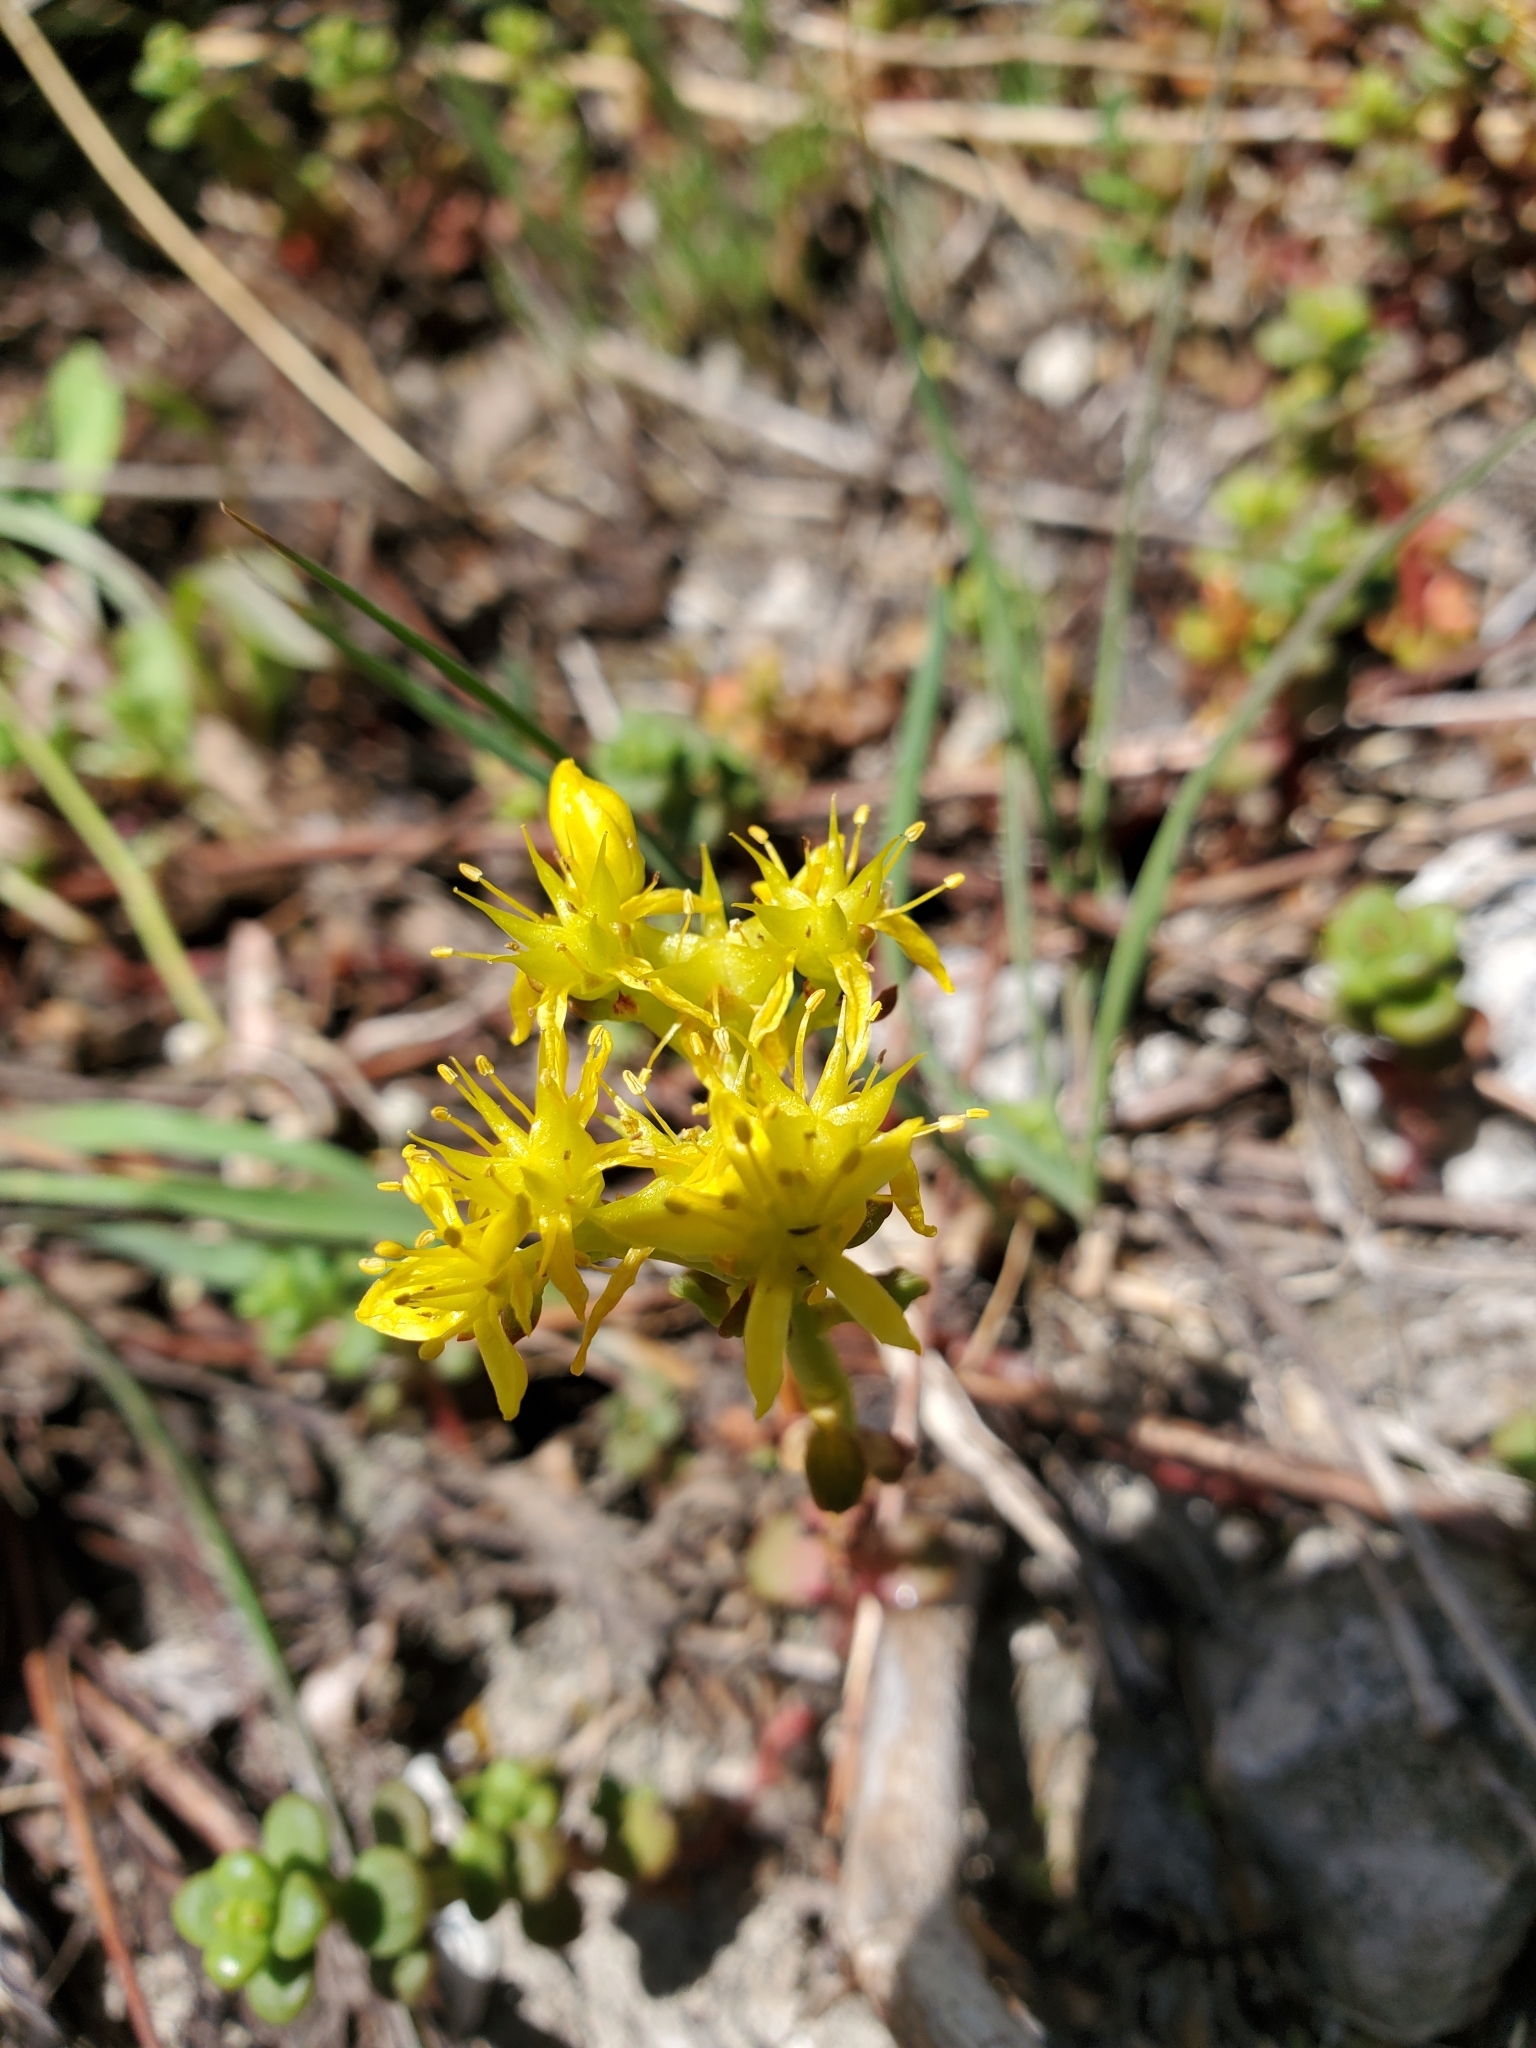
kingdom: Plantae
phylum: Tracheophyta
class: Magnoliopsida
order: Saxifragales
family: Crassulaceae
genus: Sedum
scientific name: Sedum divergens
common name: Cascade stonecrop
